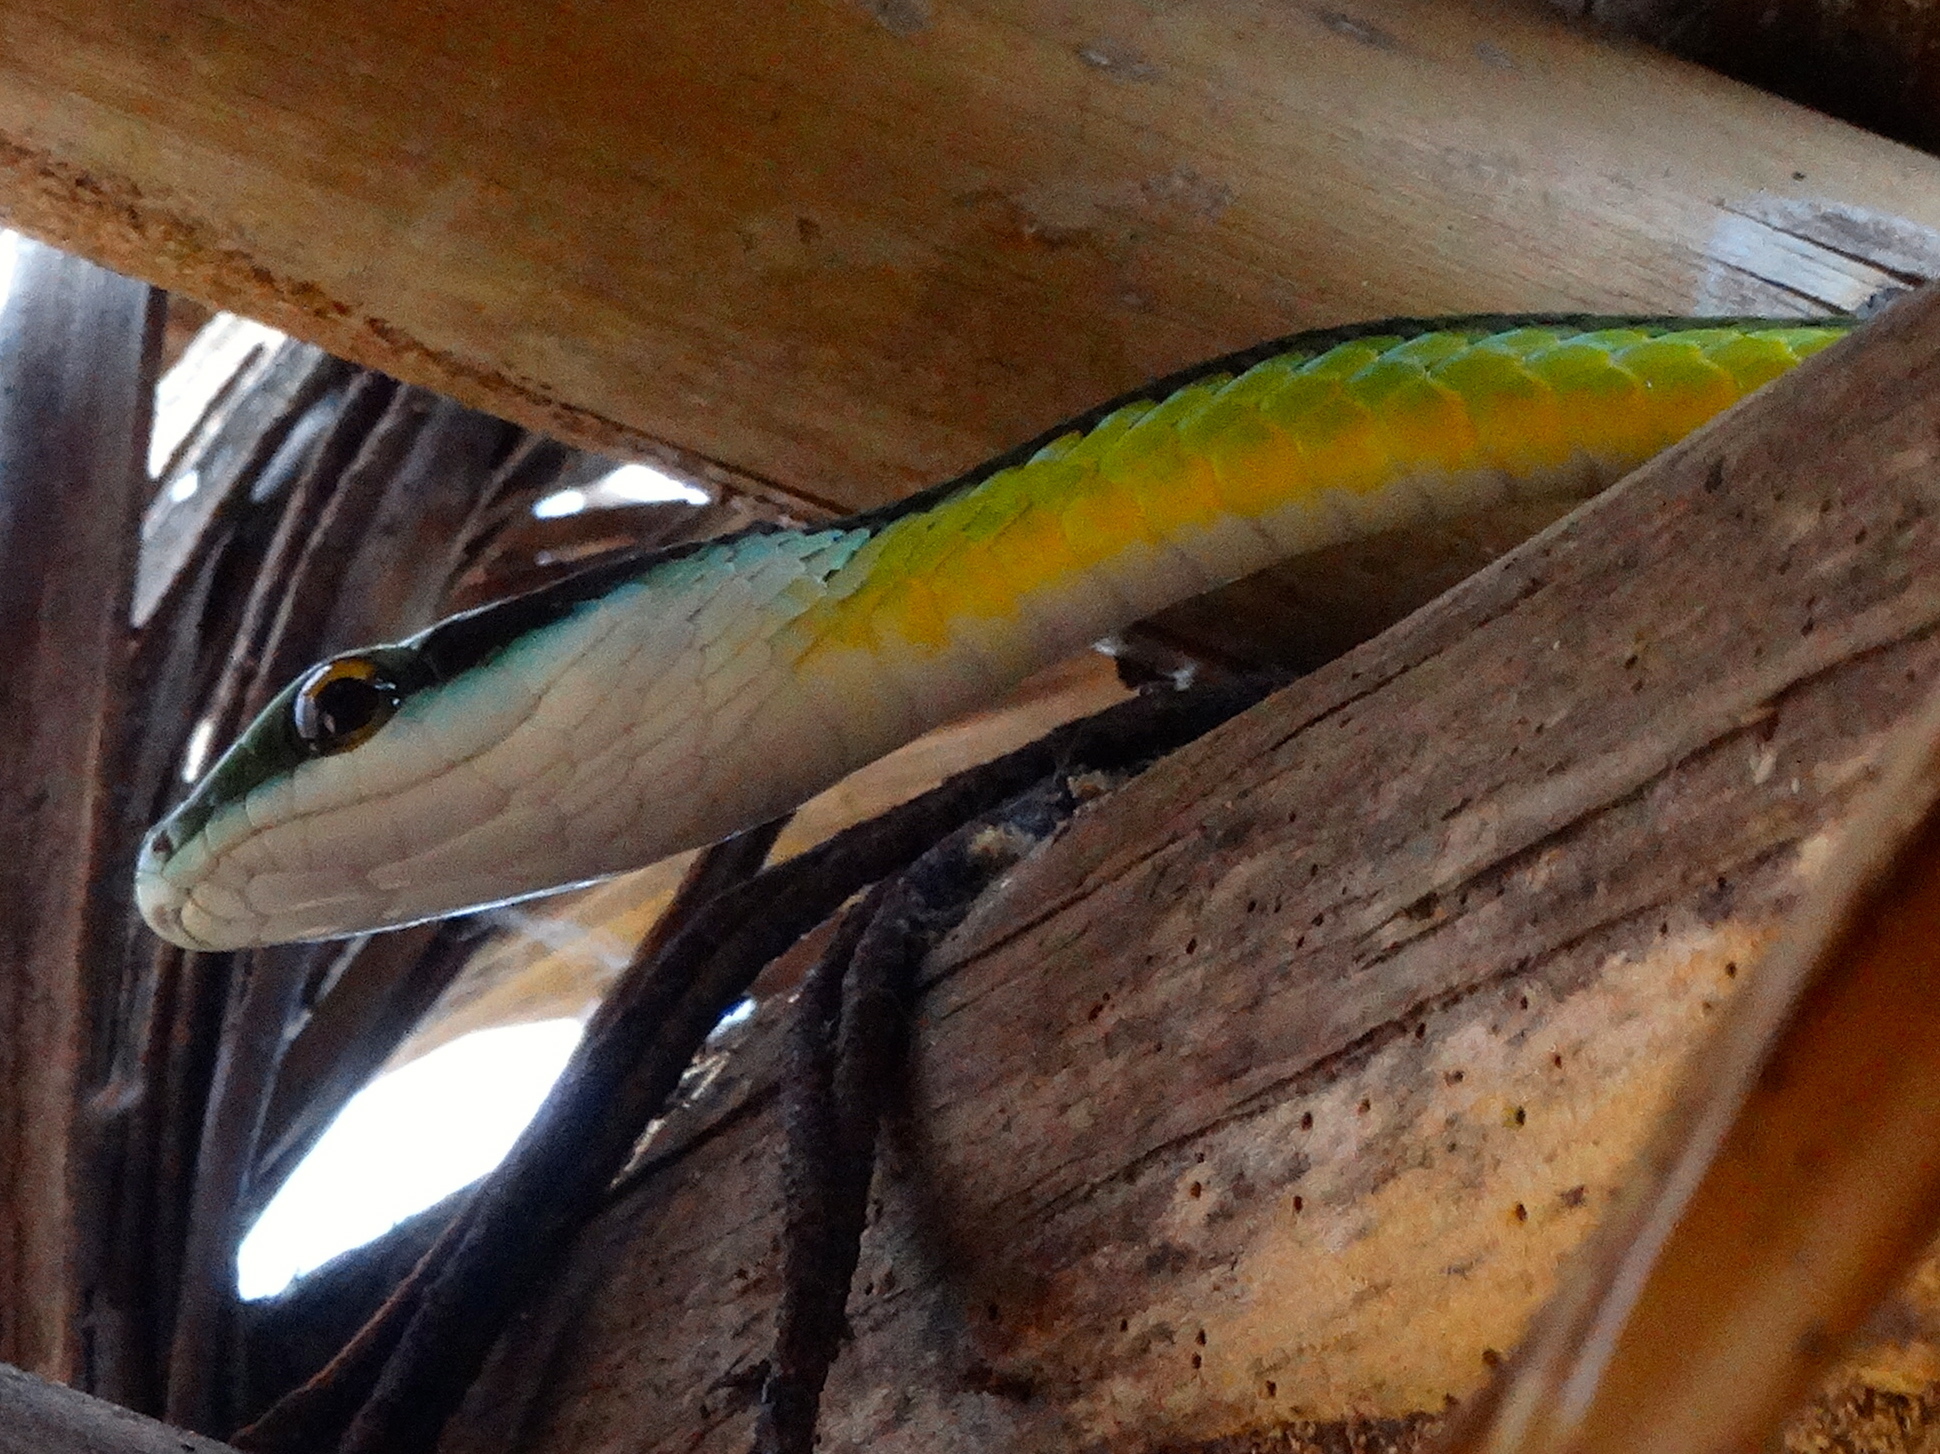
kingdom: Animalia
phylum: Chordata
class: Squamata
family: Colubridae
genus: Leptophis
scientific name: Leptophis diplotropis
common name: Pacific coast parrot snake
